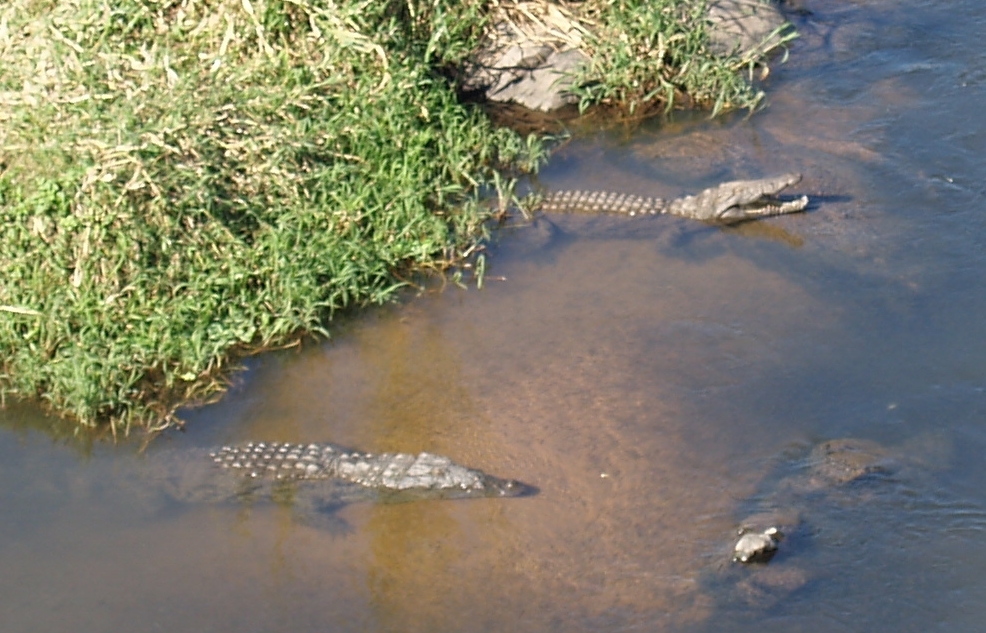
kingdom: Animalia
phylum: Chordata
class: Crocodylia
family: Crocodylidae
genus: Crocodylus
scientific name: Crocodylus niloticus
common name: Nile crocodile
